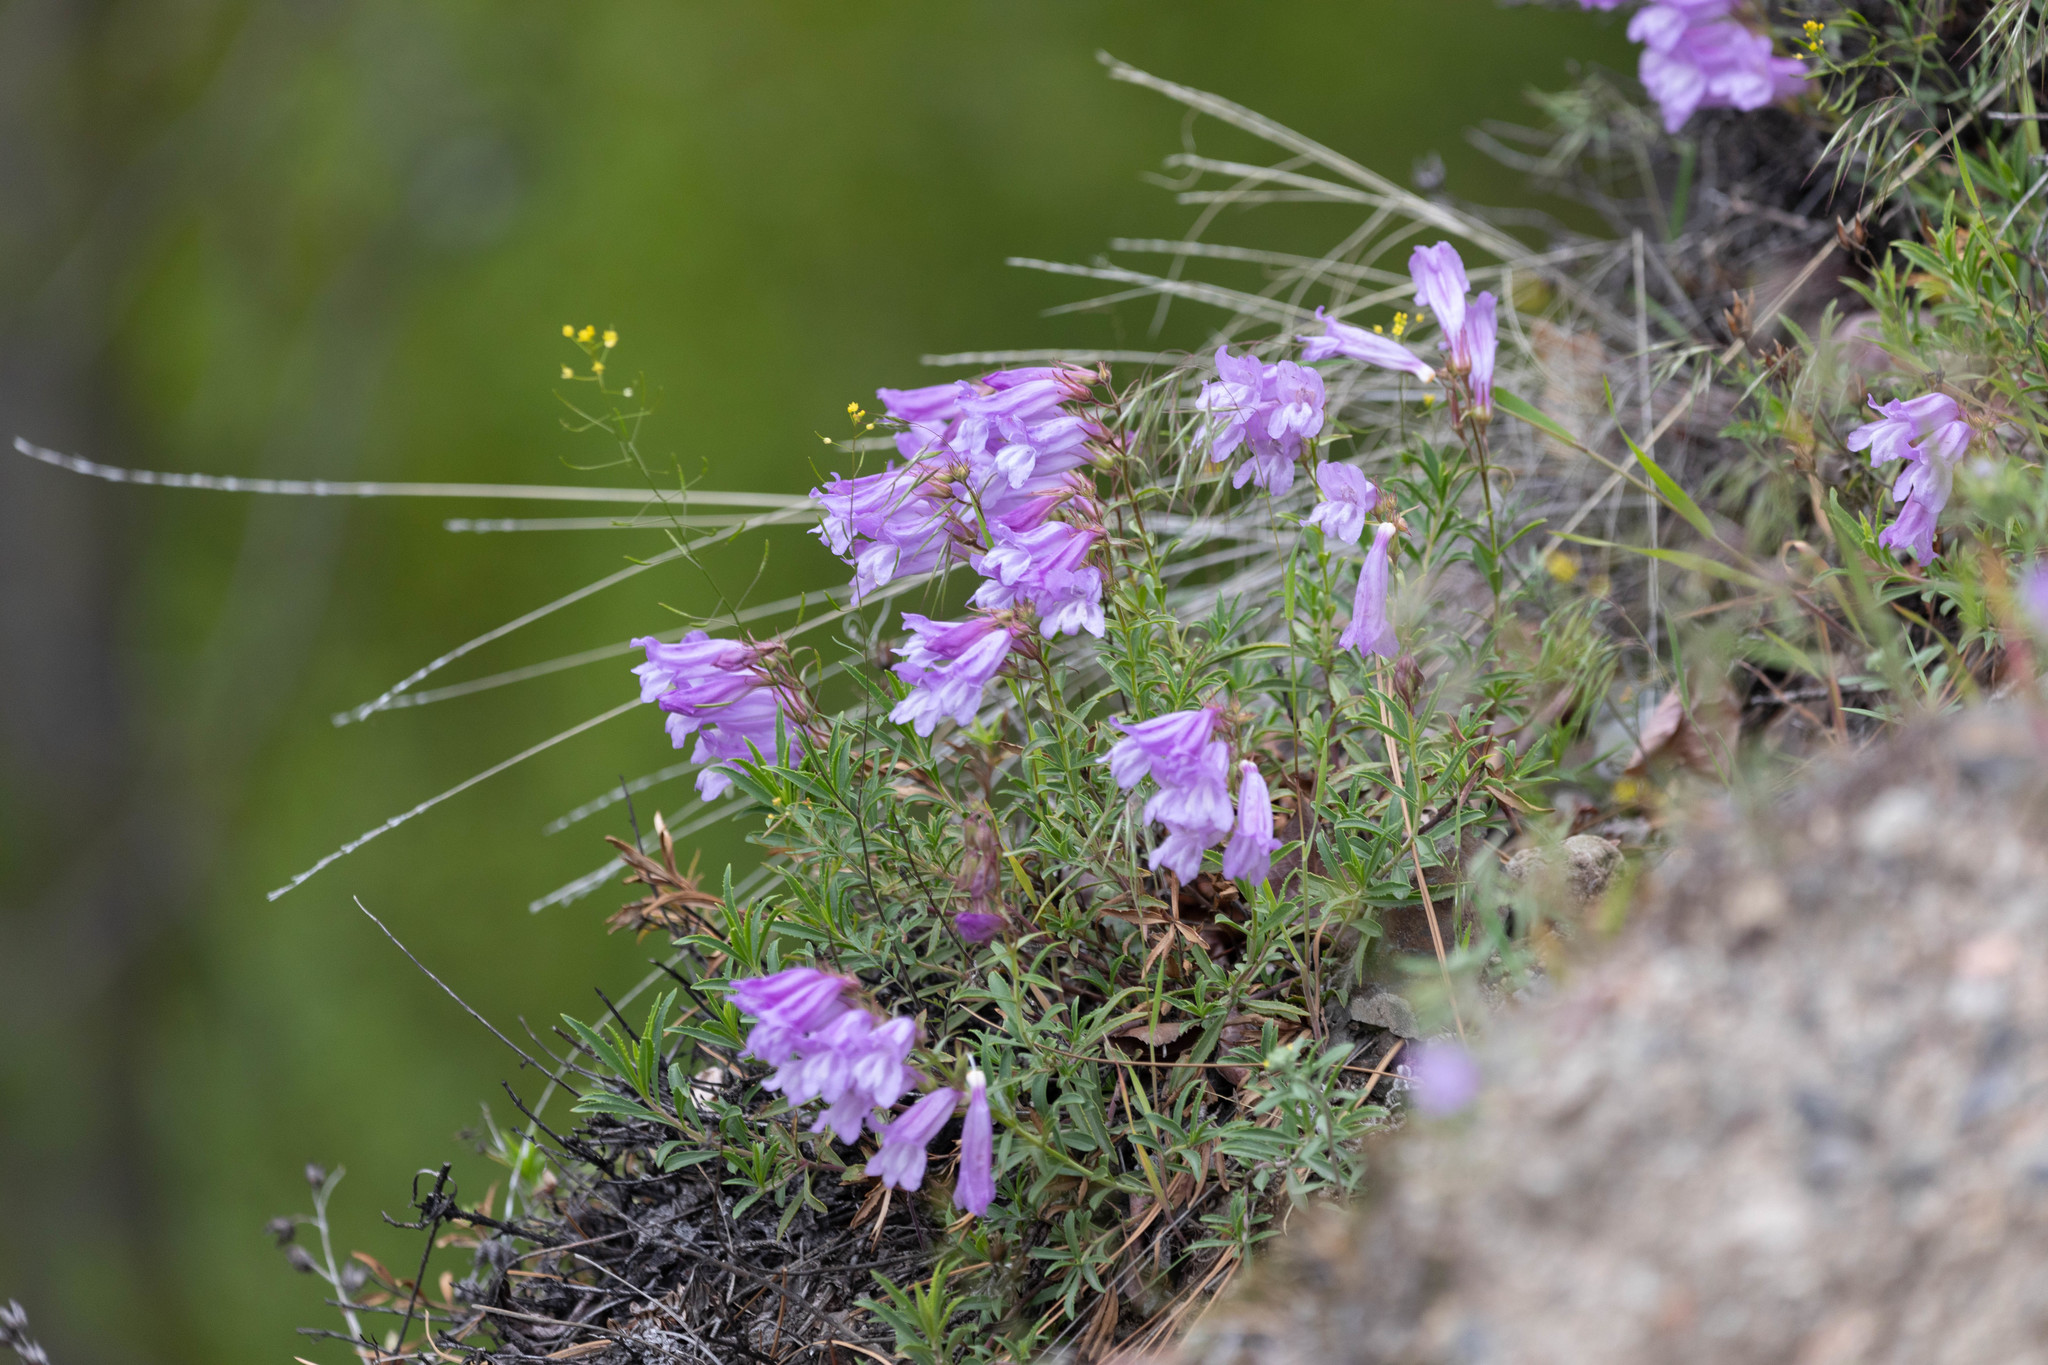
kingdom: Plantae
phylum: Tracheophyta
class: Magnoliopsida
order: Lamiales
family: Plantaginaceae
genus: Penstemon
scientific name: Penstemon fruticosus
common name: Bush penstemon
